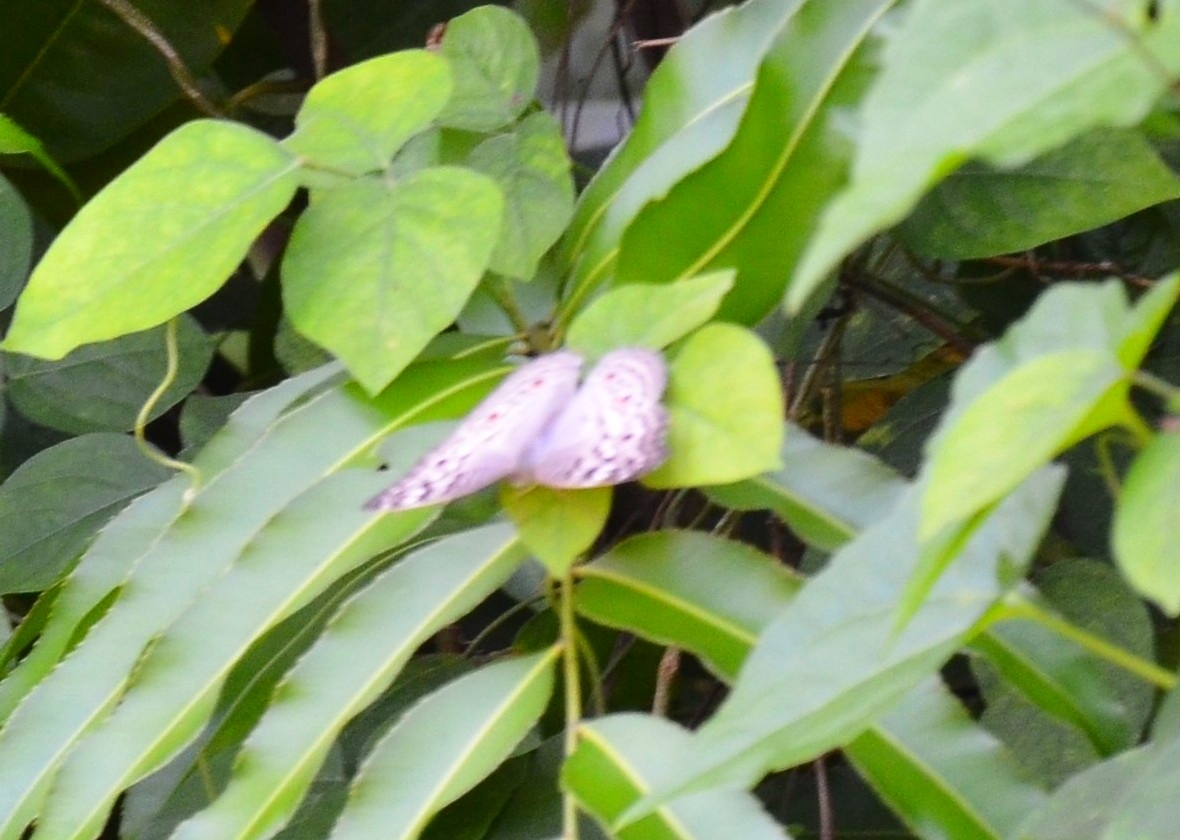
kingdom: Animalia
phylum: Arthropoda
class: Insecta
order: Lepidoptera
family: Nymphalidae
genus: Junonia
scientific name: Junonia atlites
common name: Grey pansy
